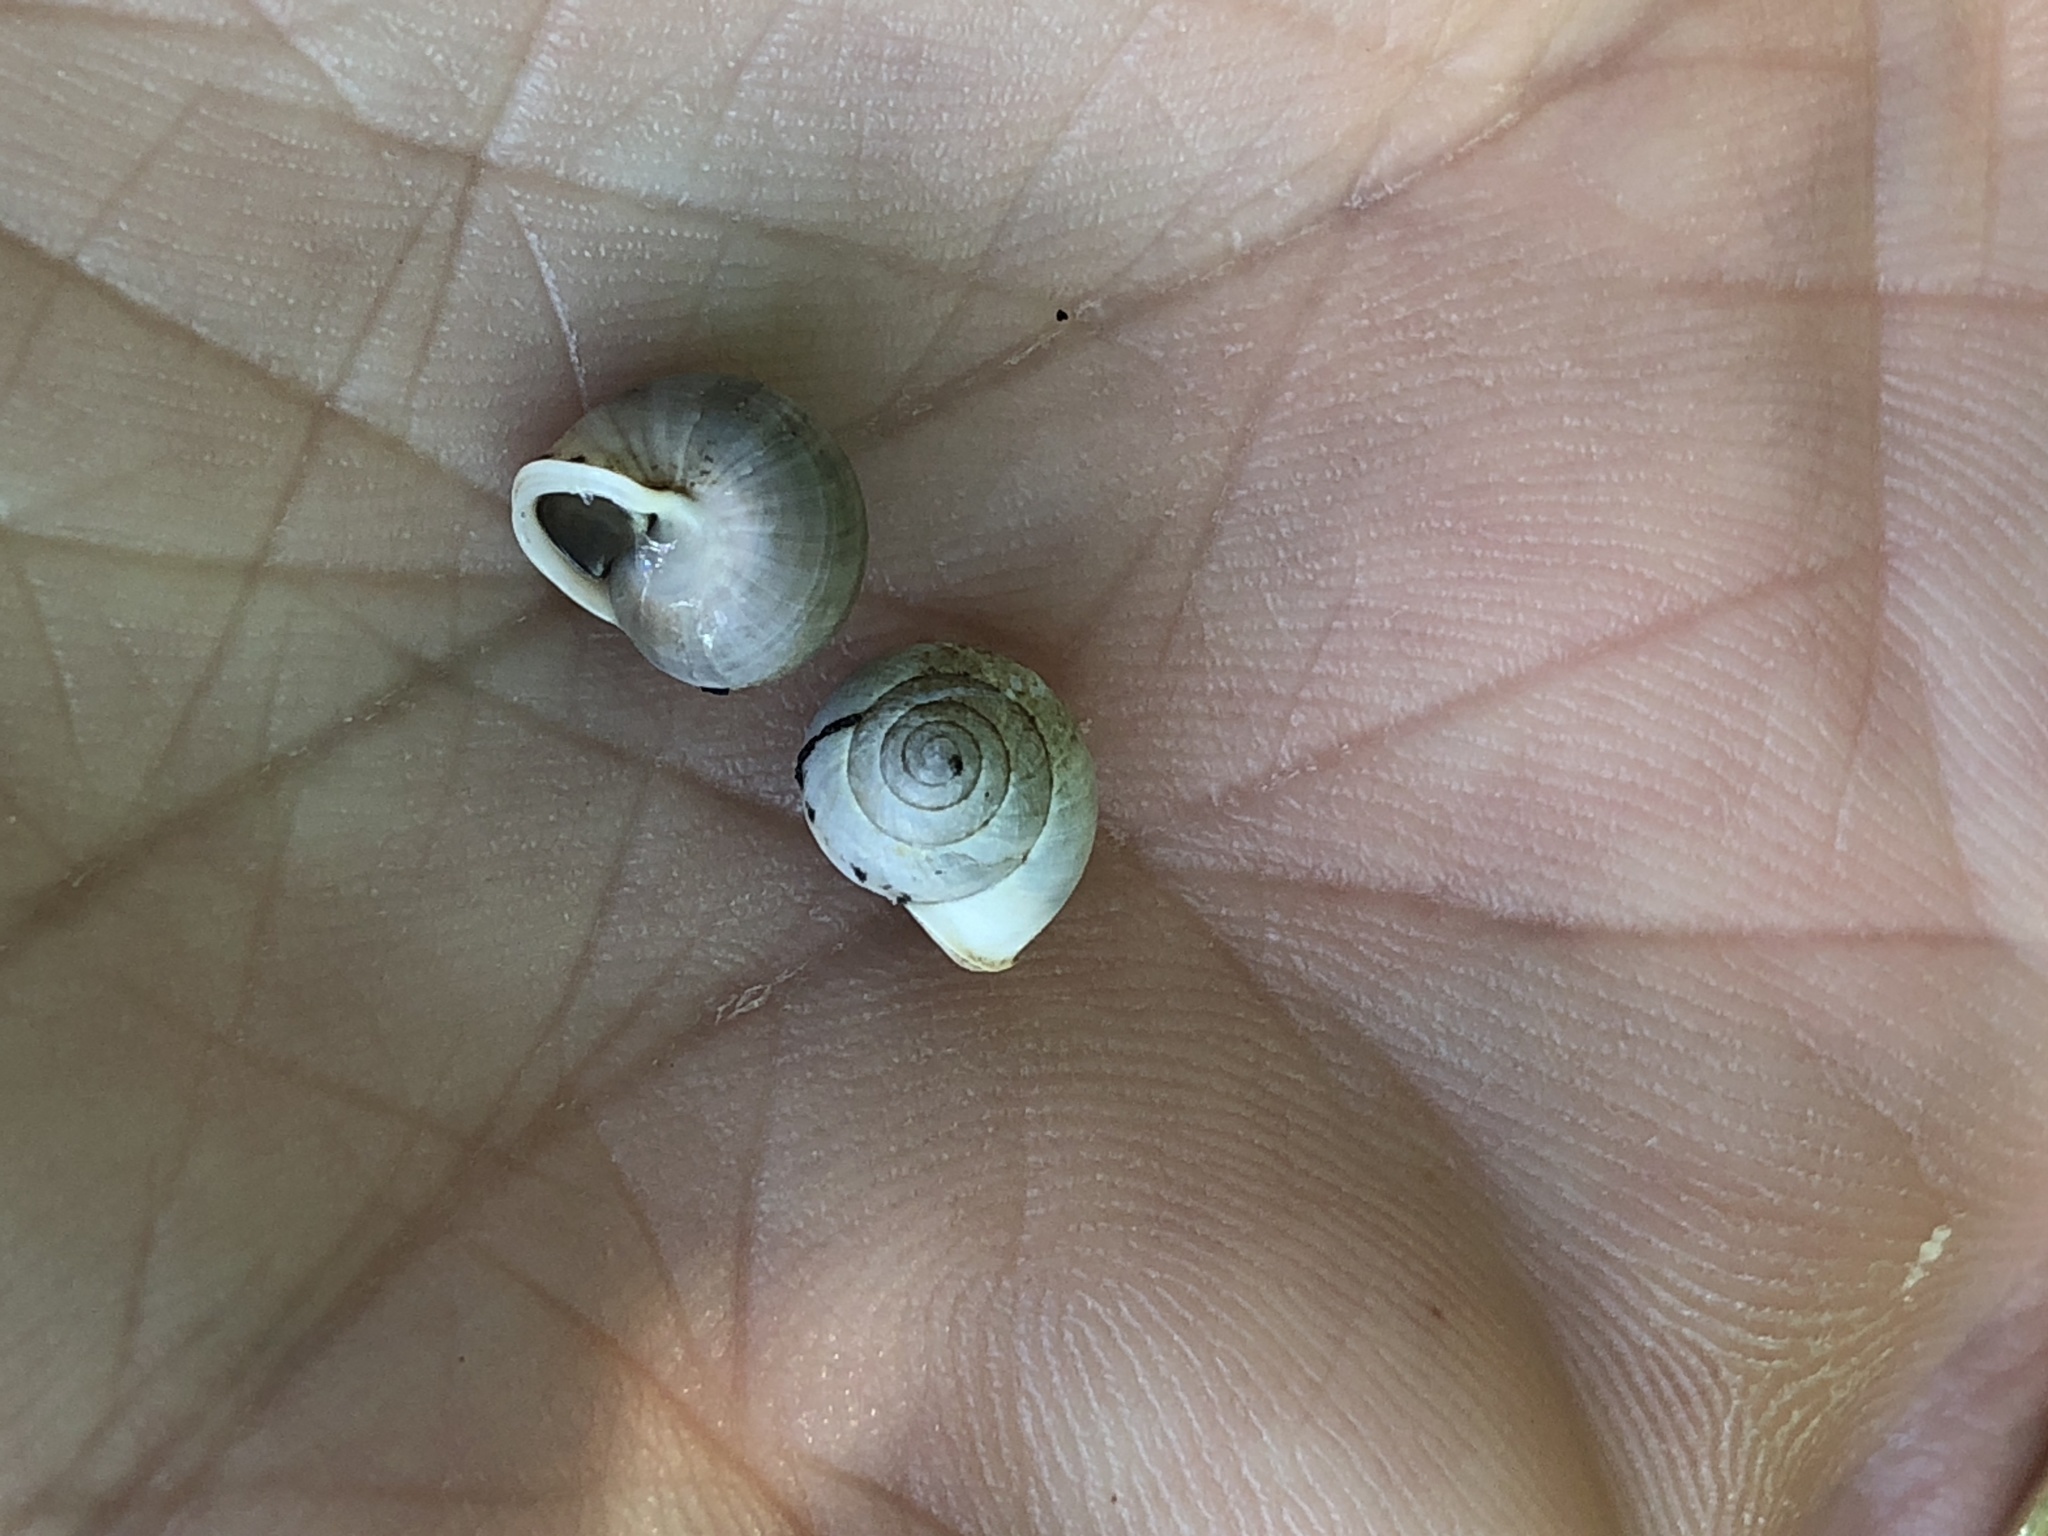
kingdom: Animalia
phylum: Mollusca
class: Gastropoda
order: Cycloneritida
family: Helicinidae
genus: Helicina
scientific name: Helicina orbiculata
